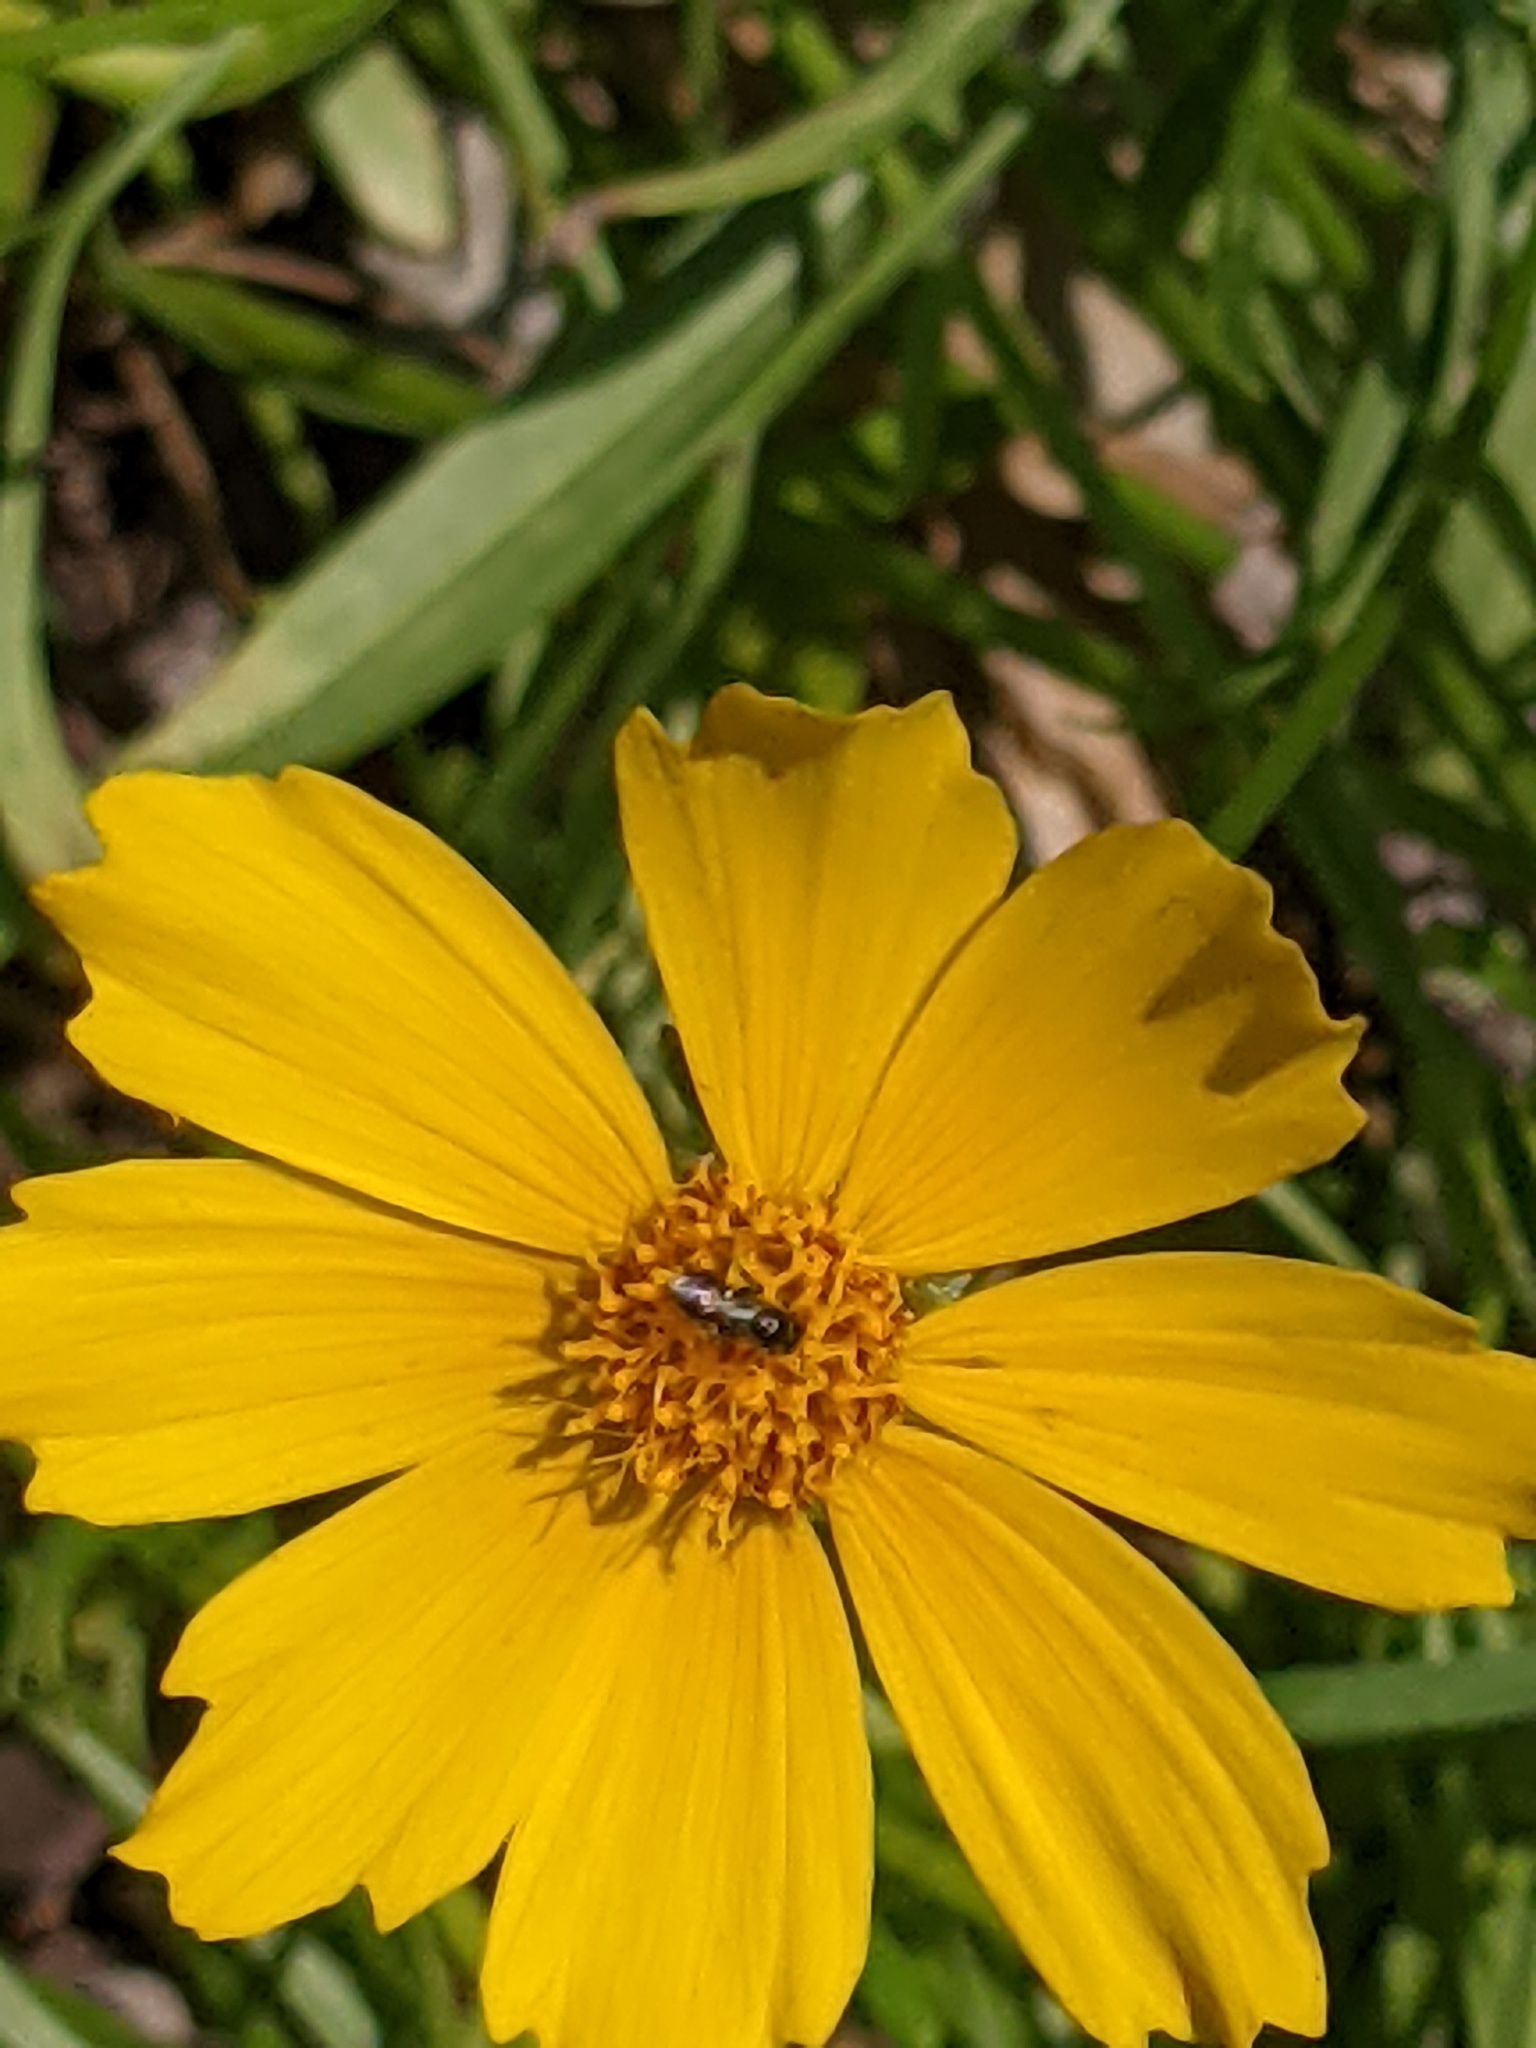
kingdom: Animalia
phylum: Arthropoda
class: Insecta
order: Hymenoptera
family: Apidae
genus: Zadontomerus
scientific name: Zadontomerus
